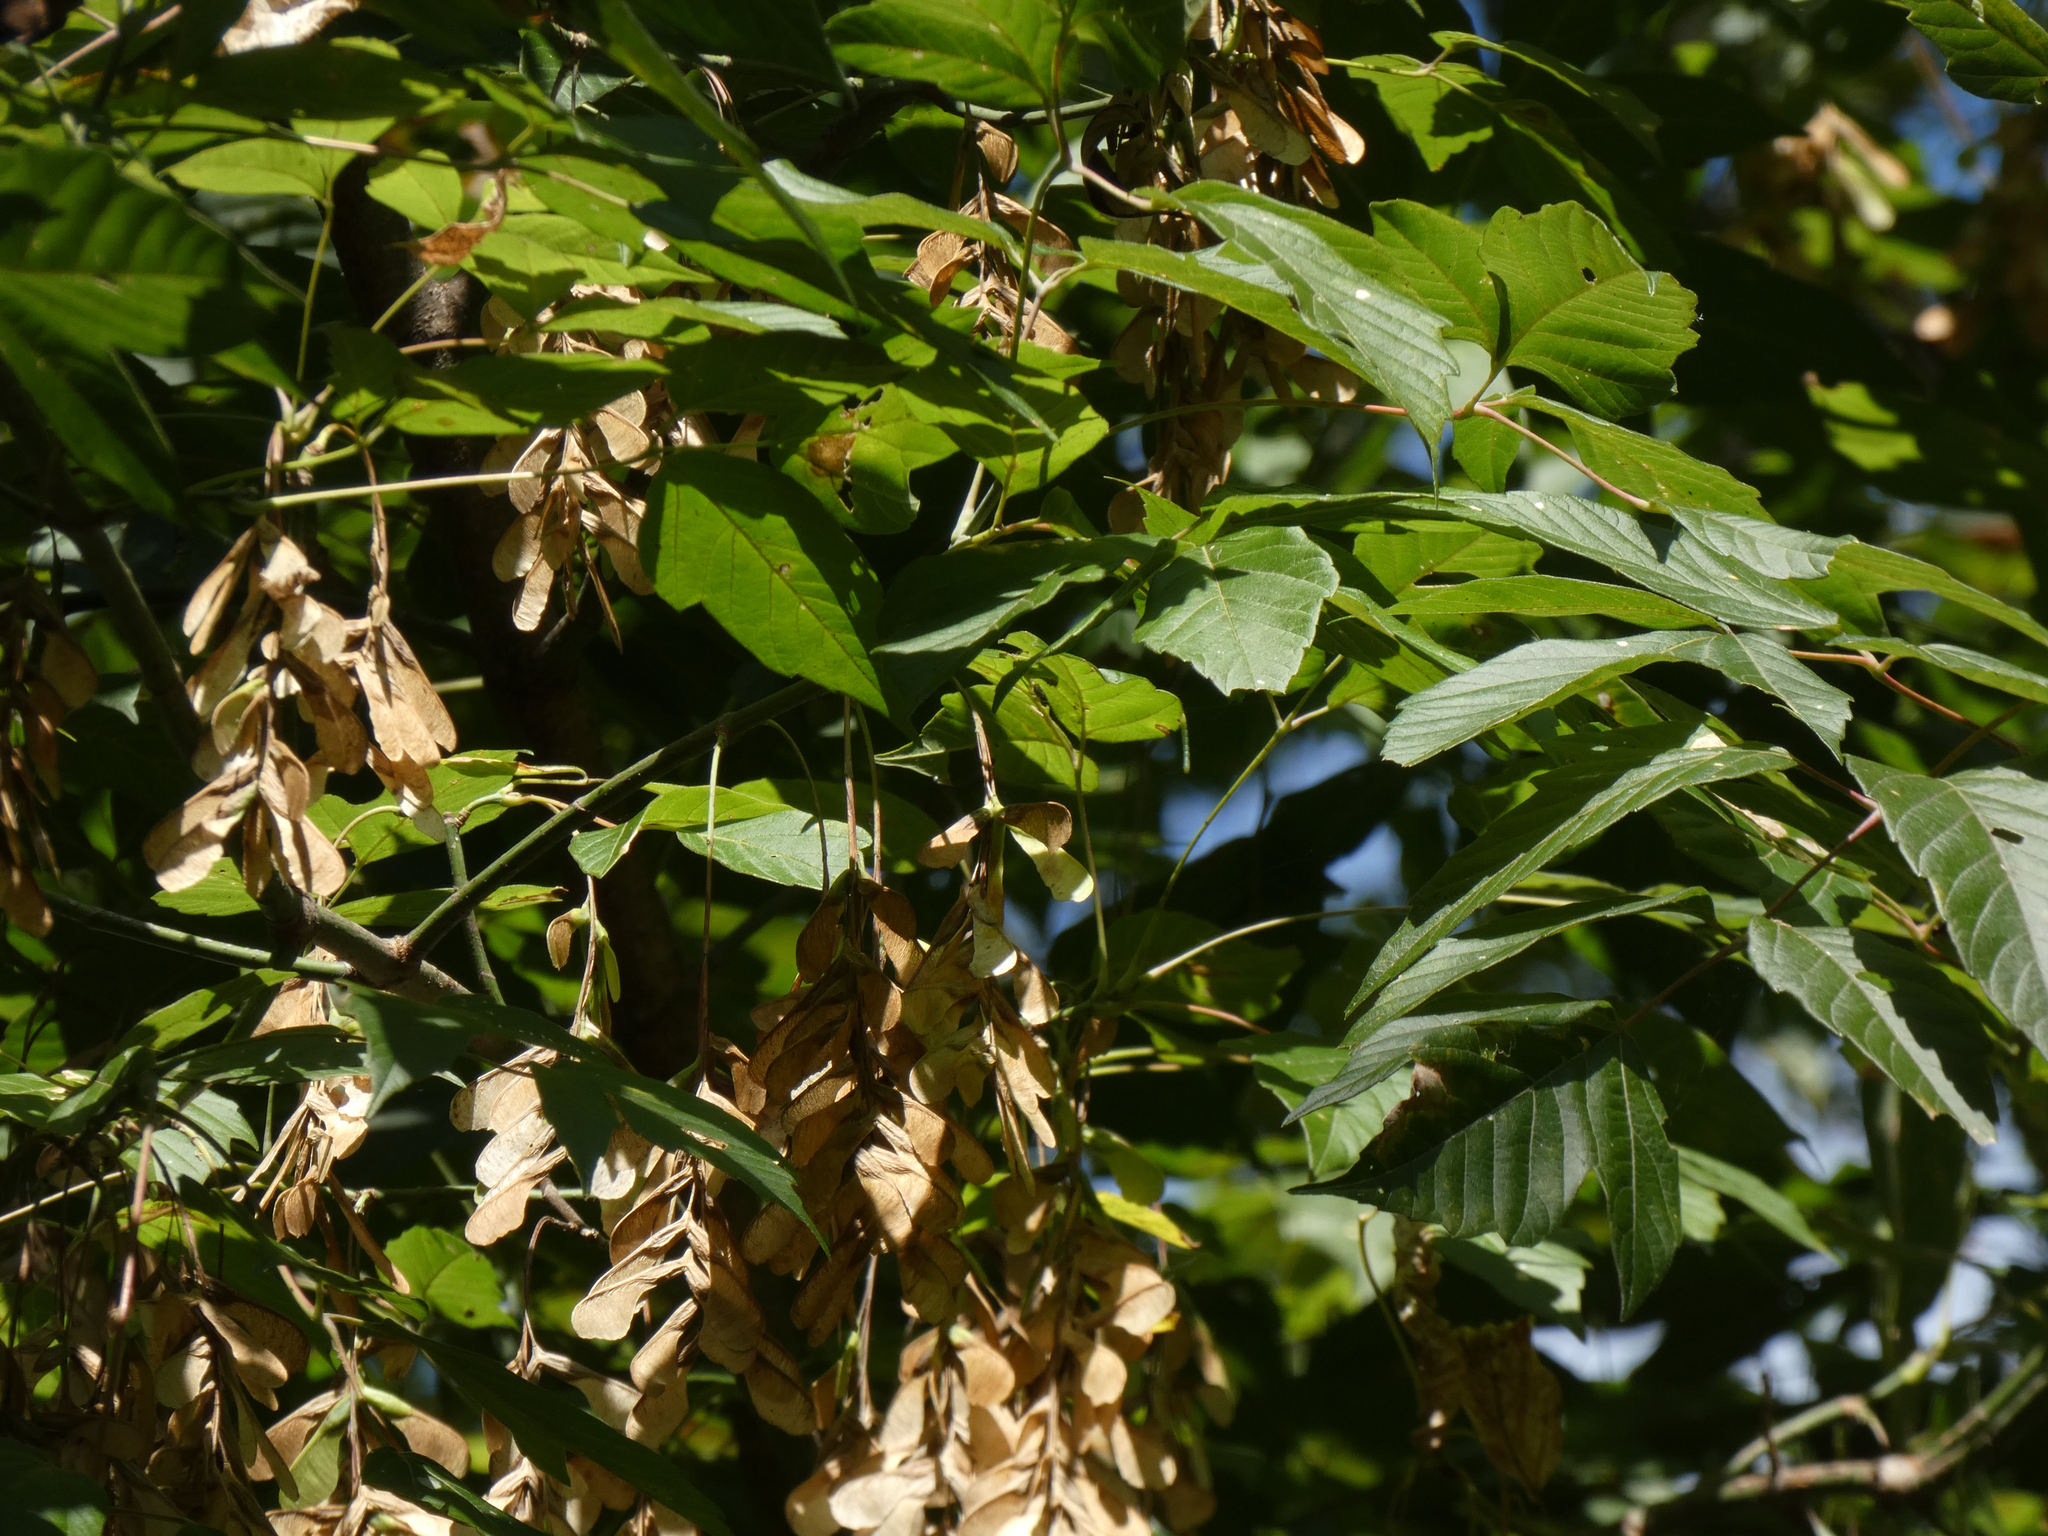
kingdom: Plantae
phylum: Tracheophyta
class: Magnoliopsida
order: Sapindales
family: Sapindaceae
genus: Acer
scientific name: Acer negundo
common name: Ashleaf maple
